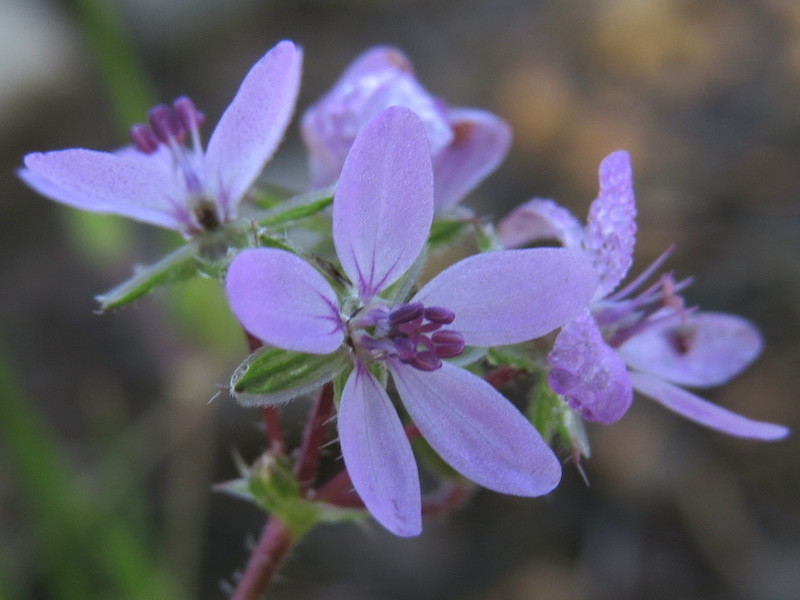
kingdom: Plantae
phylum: Tracheophyta
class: Magnoliopsida
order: Geraniales
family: Geraniaceae
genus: Erodium
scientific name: Erodium cicutarium
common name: Common stork's-bill
